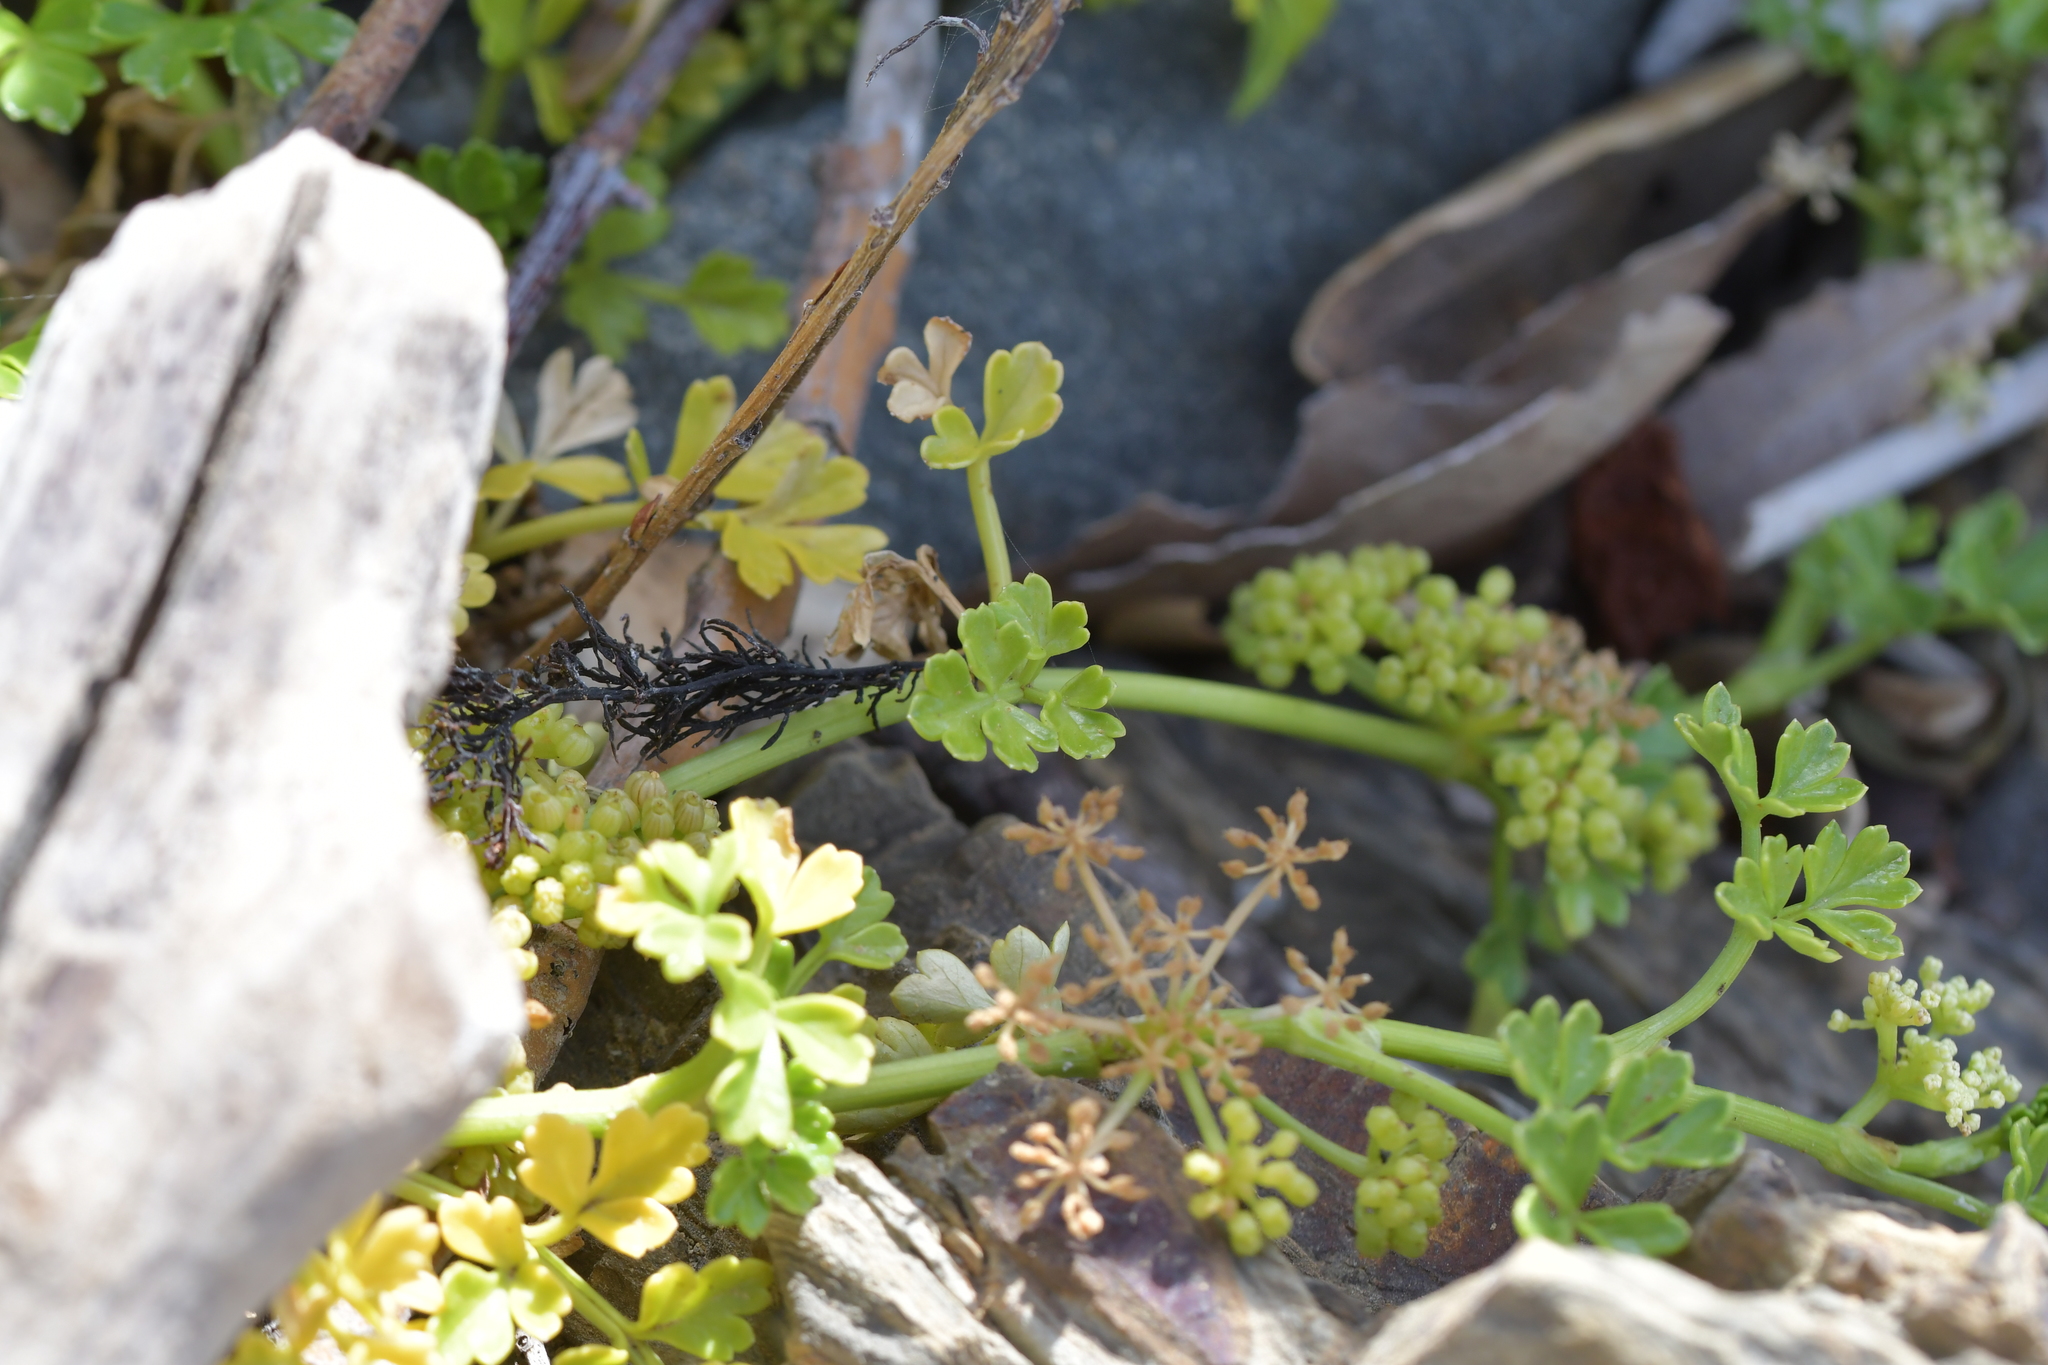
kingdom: Plantae
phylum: Tracheophyta
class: Magnoliopsida
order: Apiales
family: Apiaceae
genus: Apium
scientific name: Apium prostratum
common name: Prostrate marshwort
